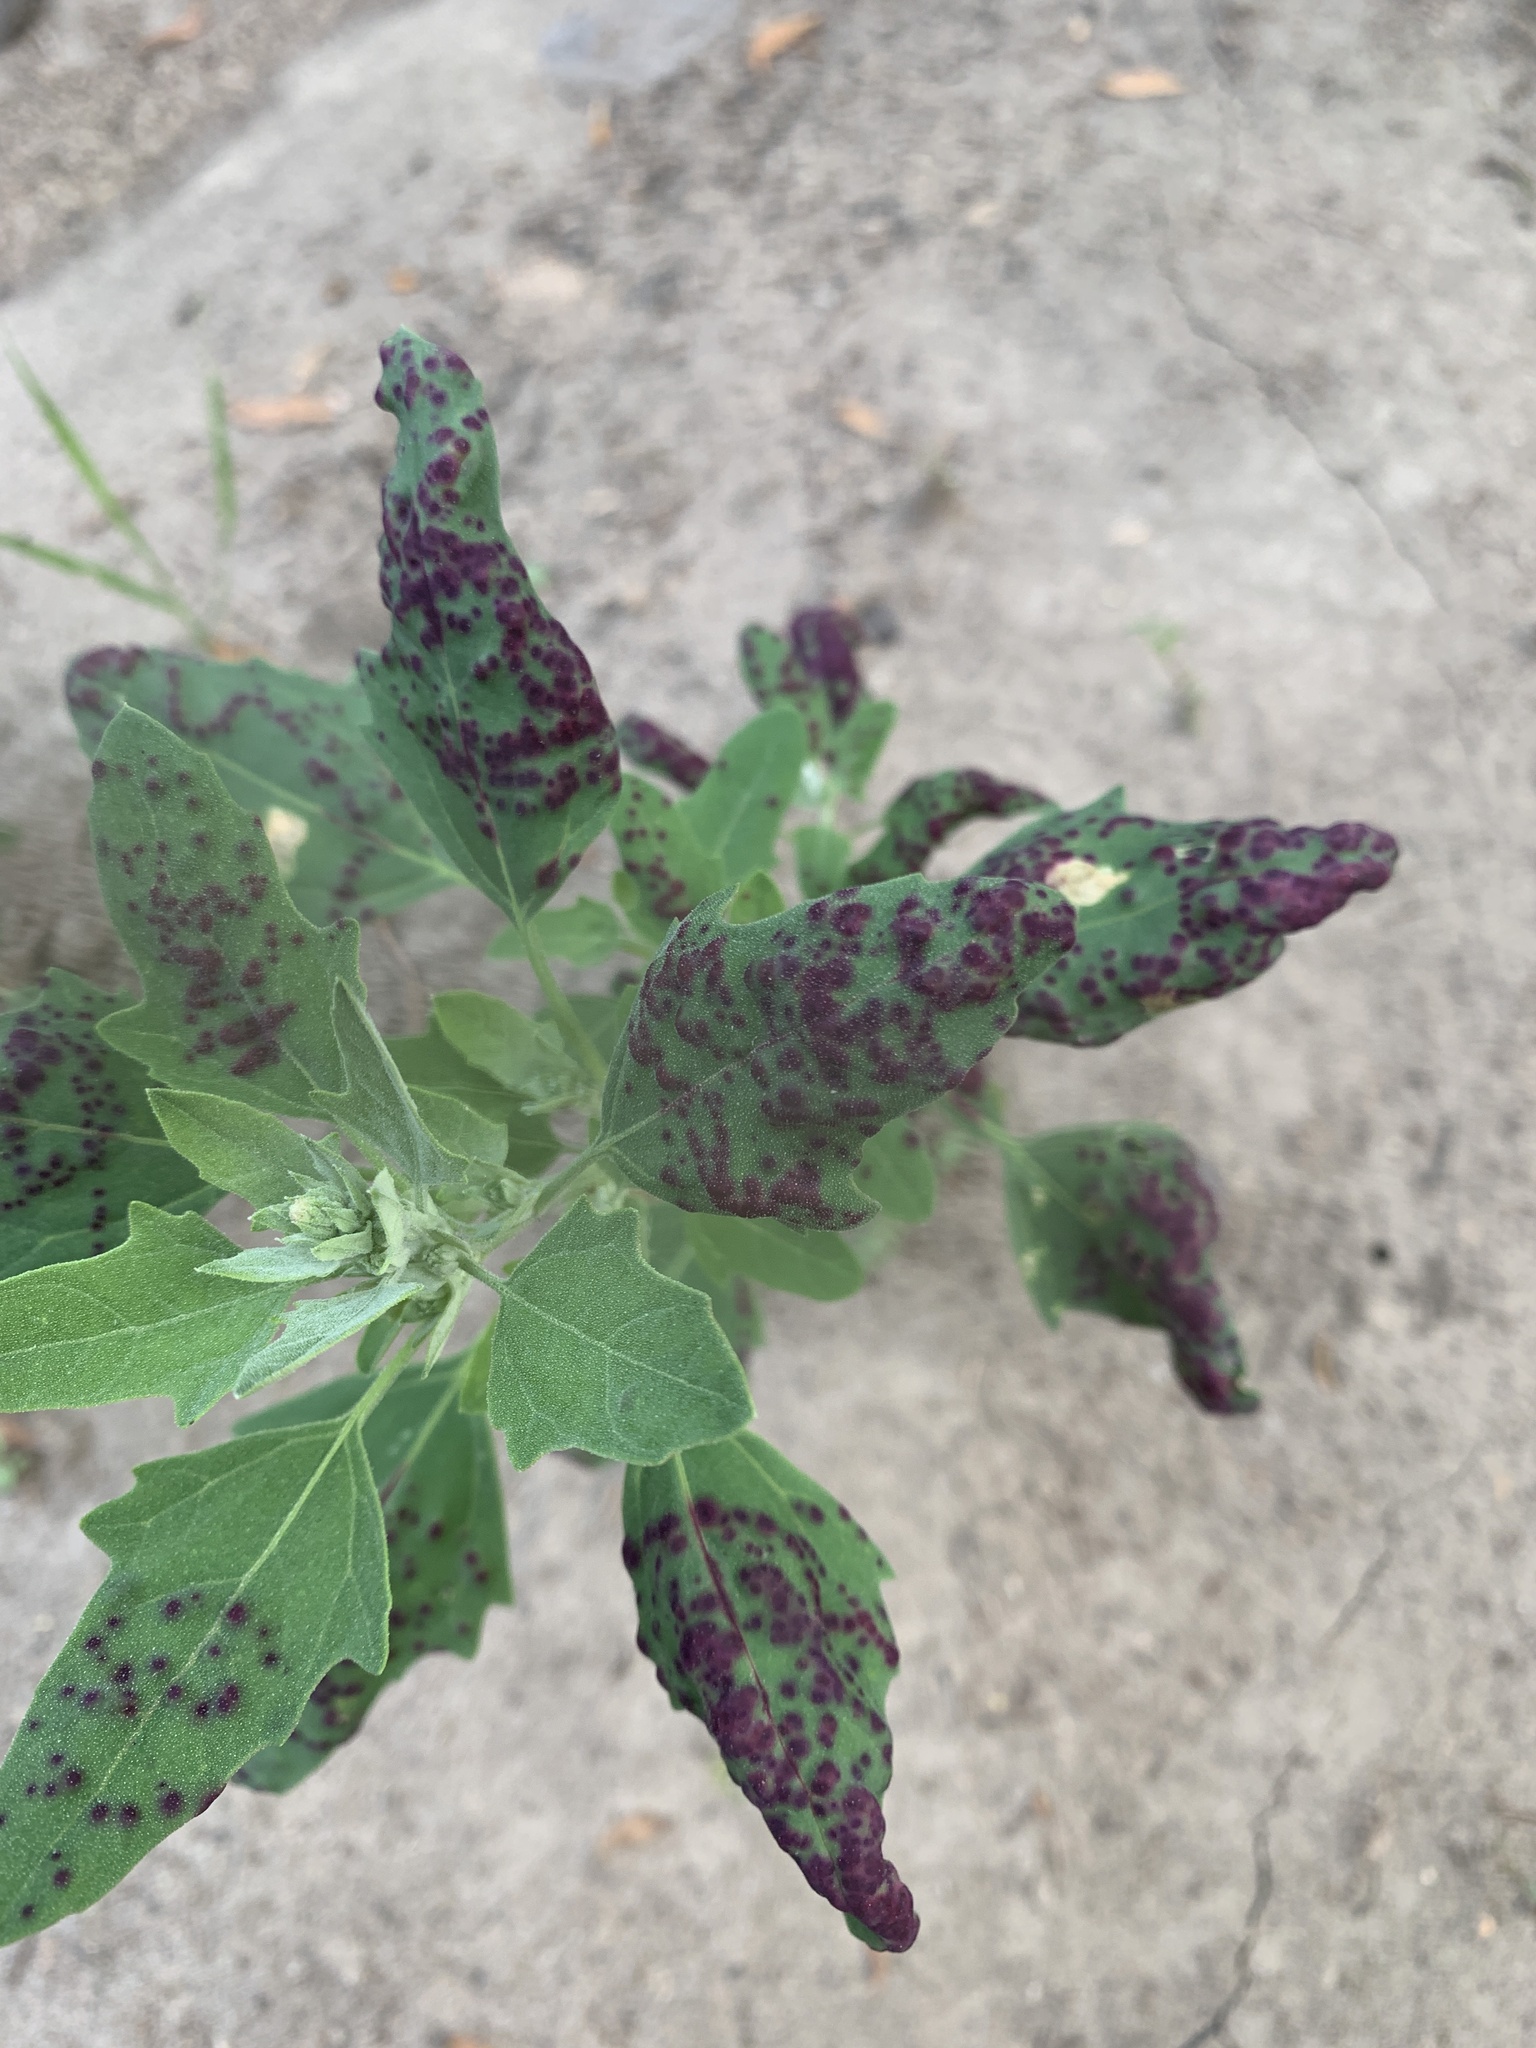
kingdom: Animalia
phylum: Arthropoda
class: Insecta
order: Hemiptera
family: Cicadellidae
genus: Norvellina
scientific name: Norvellina chenopodii
